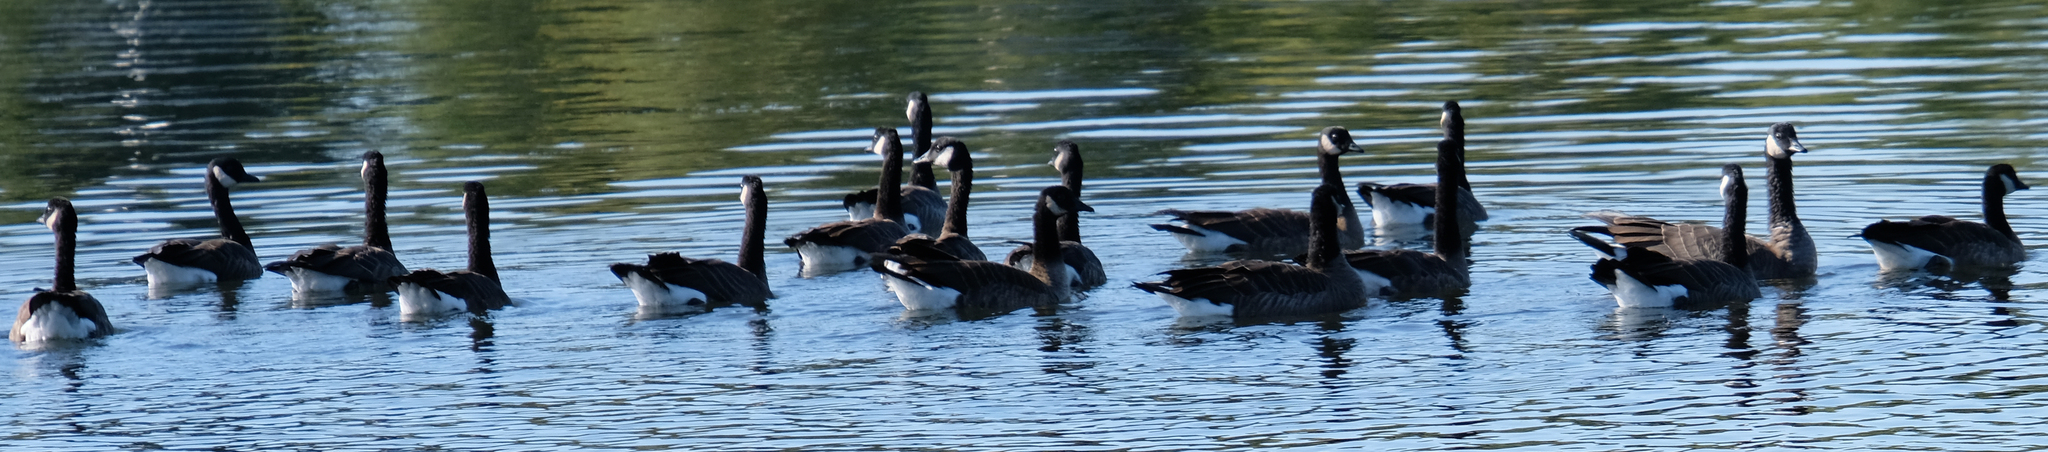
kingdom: Animalia
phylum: Chordata
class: Aves
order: Anseriformes
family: Anatidae
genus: Branta
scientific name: Branta canadensis
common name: Canada goose
